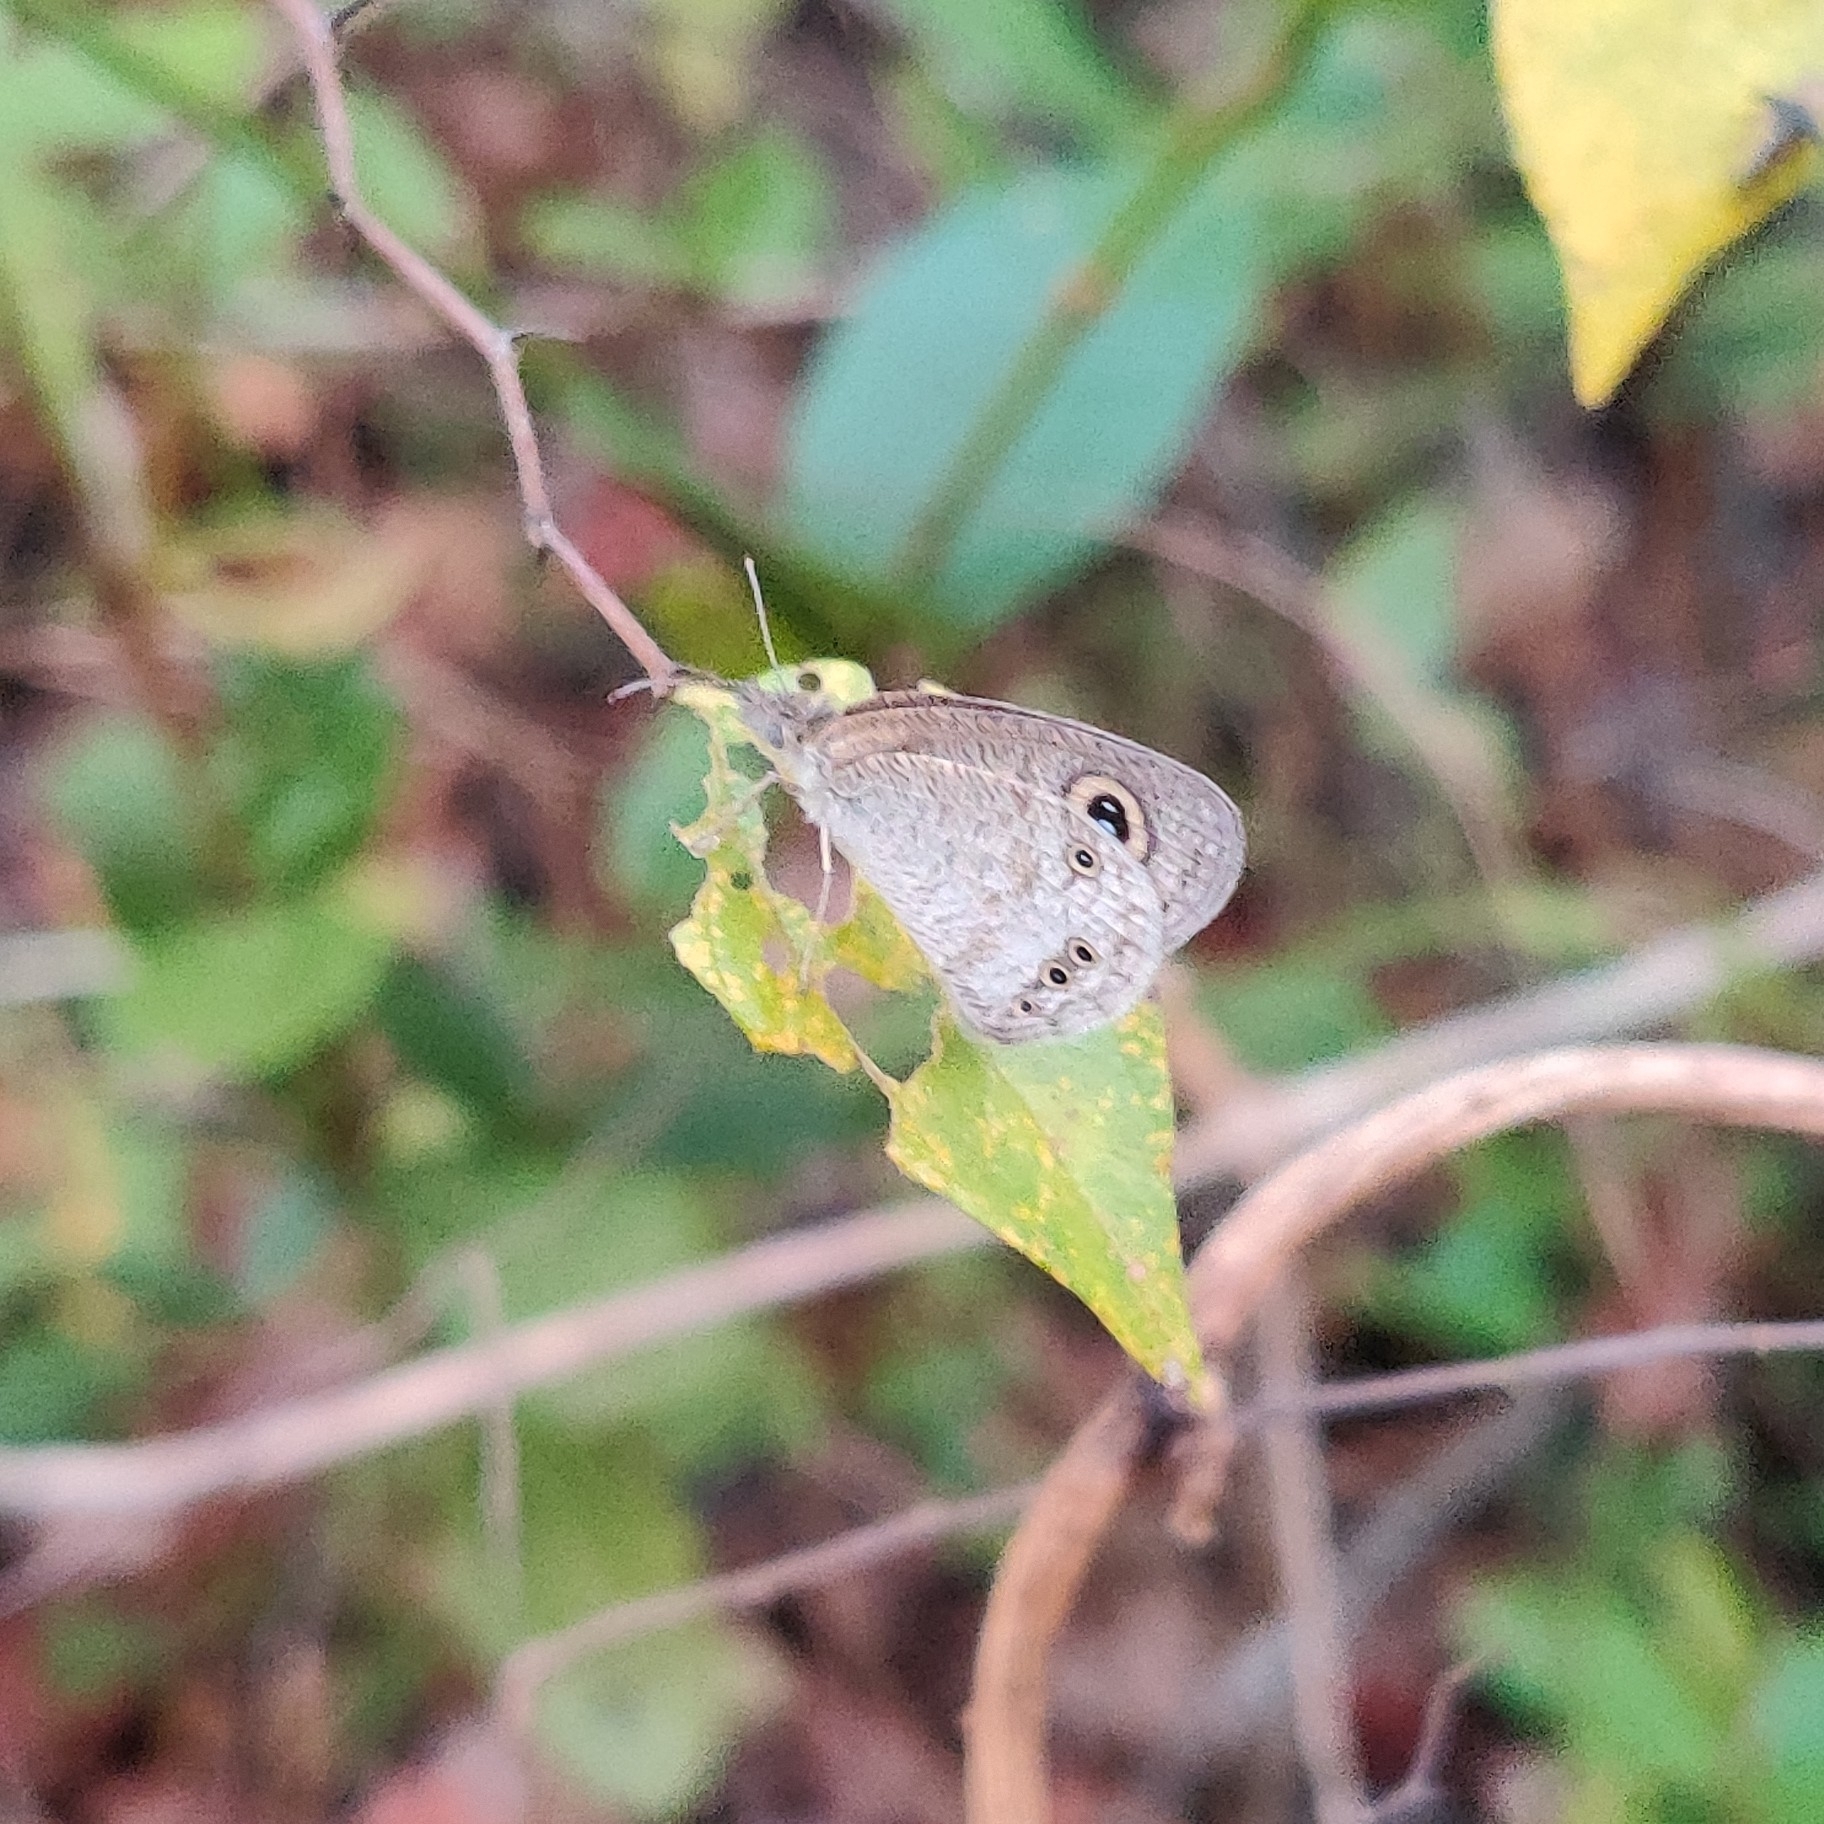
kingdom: Animalia
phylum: Arthropoda
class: Insecta
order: Lepidoptera
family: Nymphalidae
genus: Ypthima
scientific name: Ypthima huebneri
